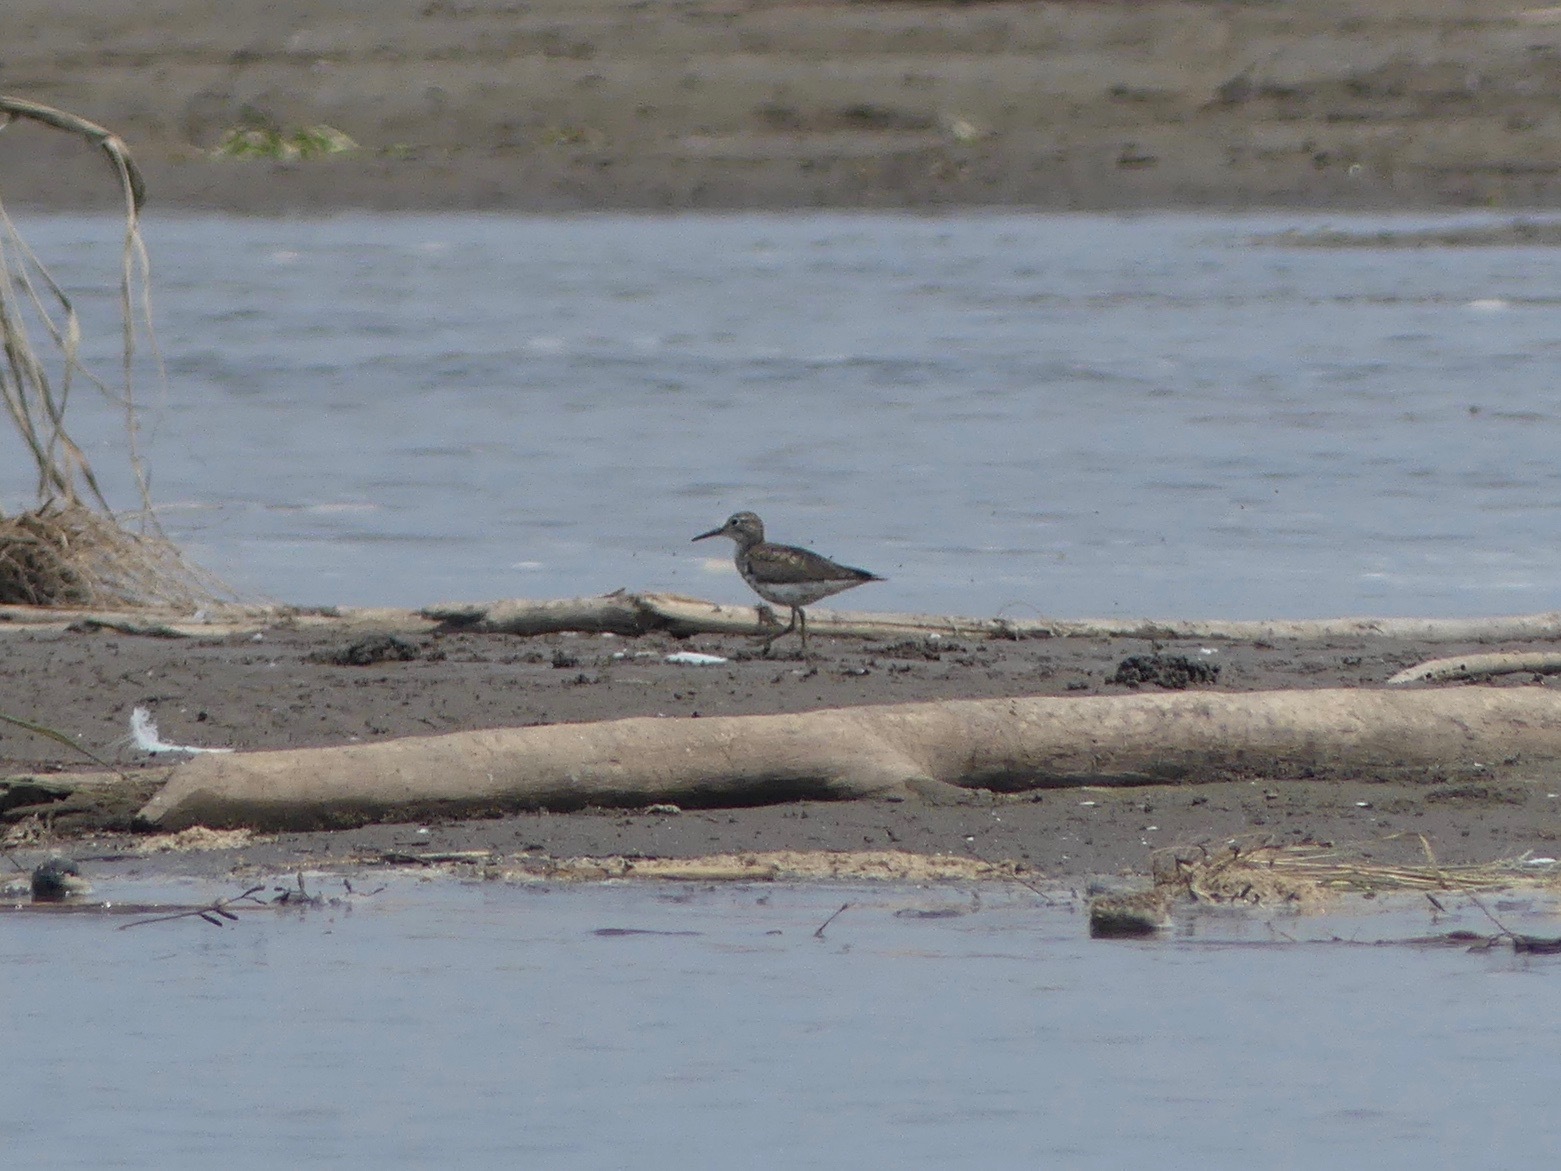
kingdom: Animalia
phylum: Chordata
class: Aves
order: Charadriiformes
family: Scolopacidae
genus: Actitis
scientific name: Actitis macularius
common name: Spotted sandpiper
